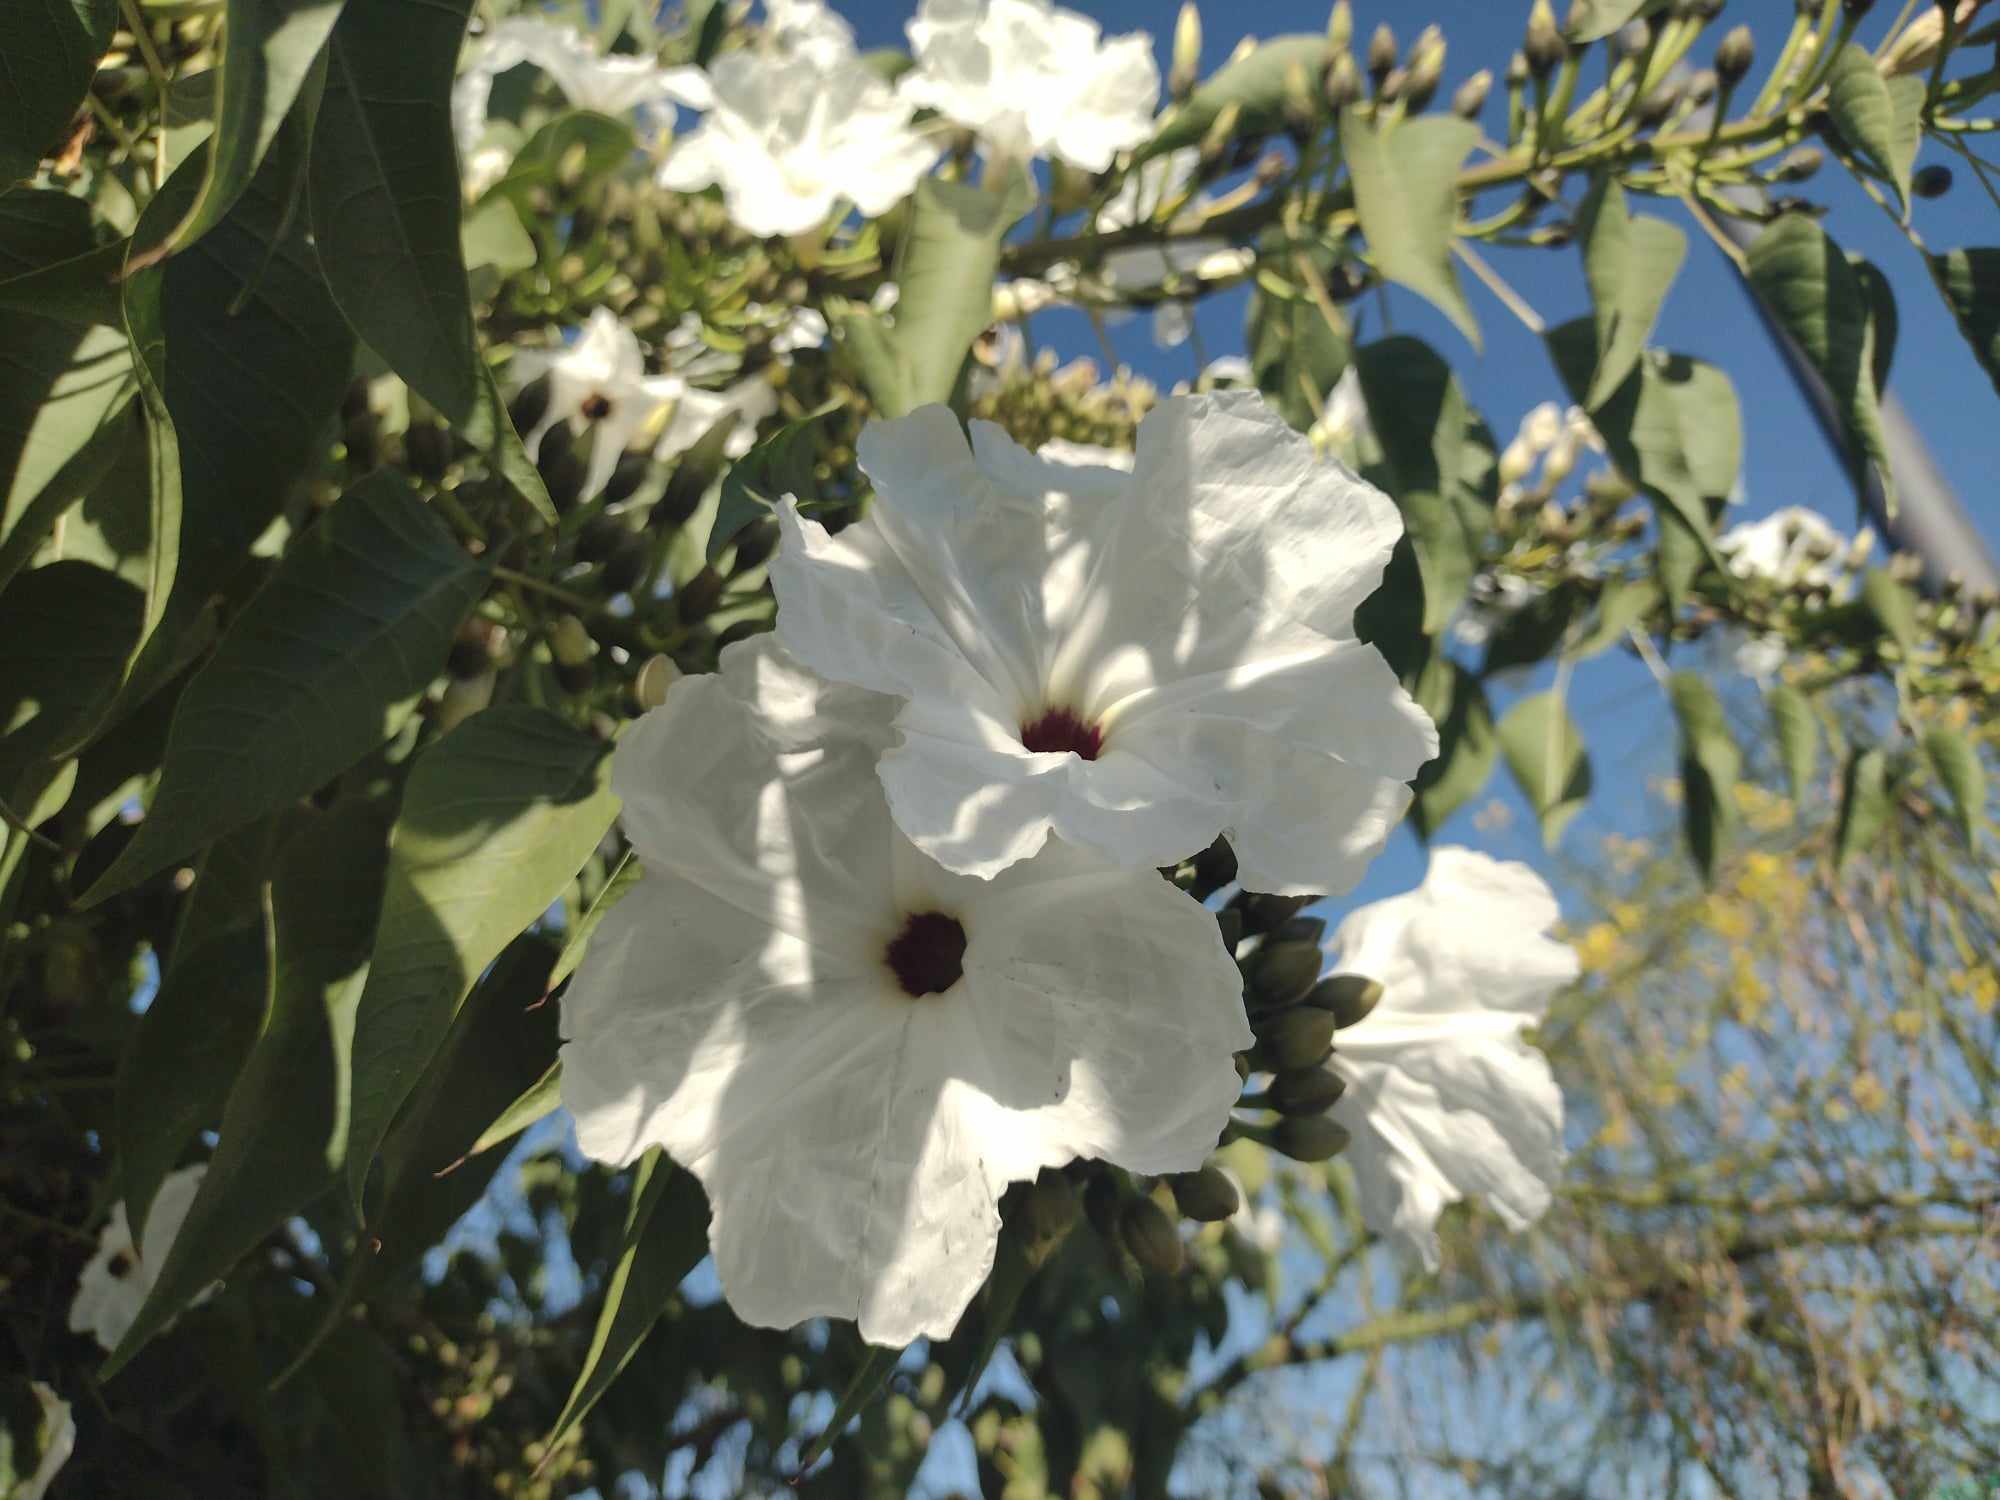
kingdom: Plantae
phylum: Tracheophyta
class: Magnoliopsida
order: Solanales
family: Convolvulaceae
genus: Ipomoea
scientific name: Ipomoea pauciflora
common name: Tree morningglory
